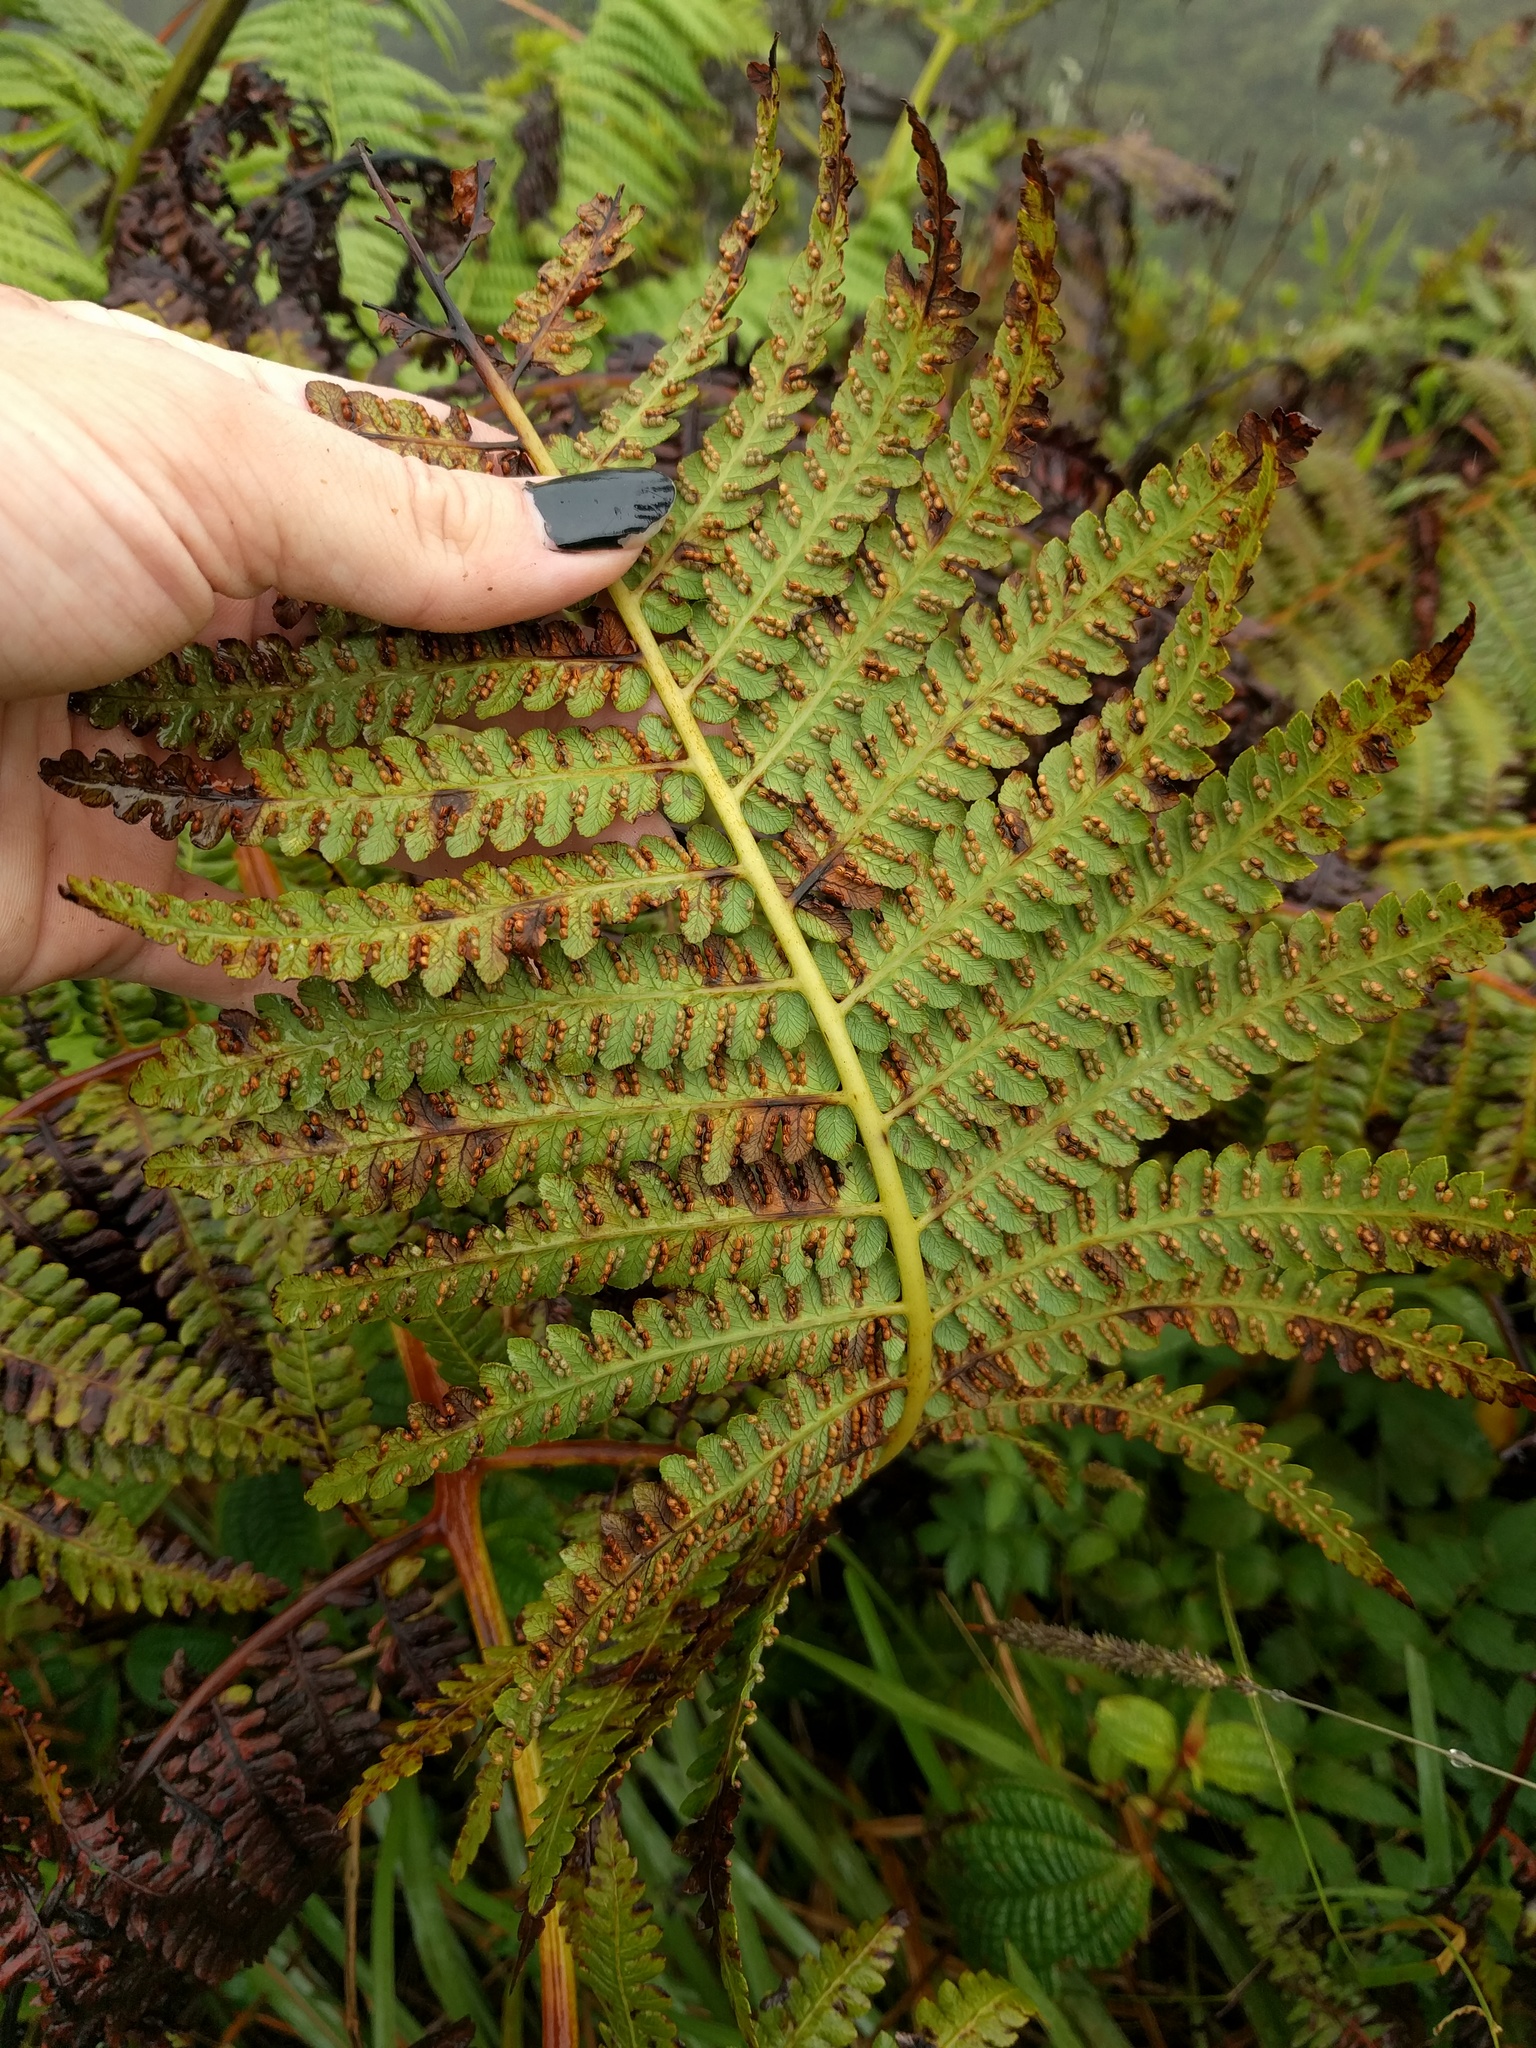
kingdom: Plantae
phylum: Tracheophyta
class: Polypodiopsida
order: Cyatheales
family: Cibotiaceae
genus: Cibotium
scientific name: Cibotium glaucum
